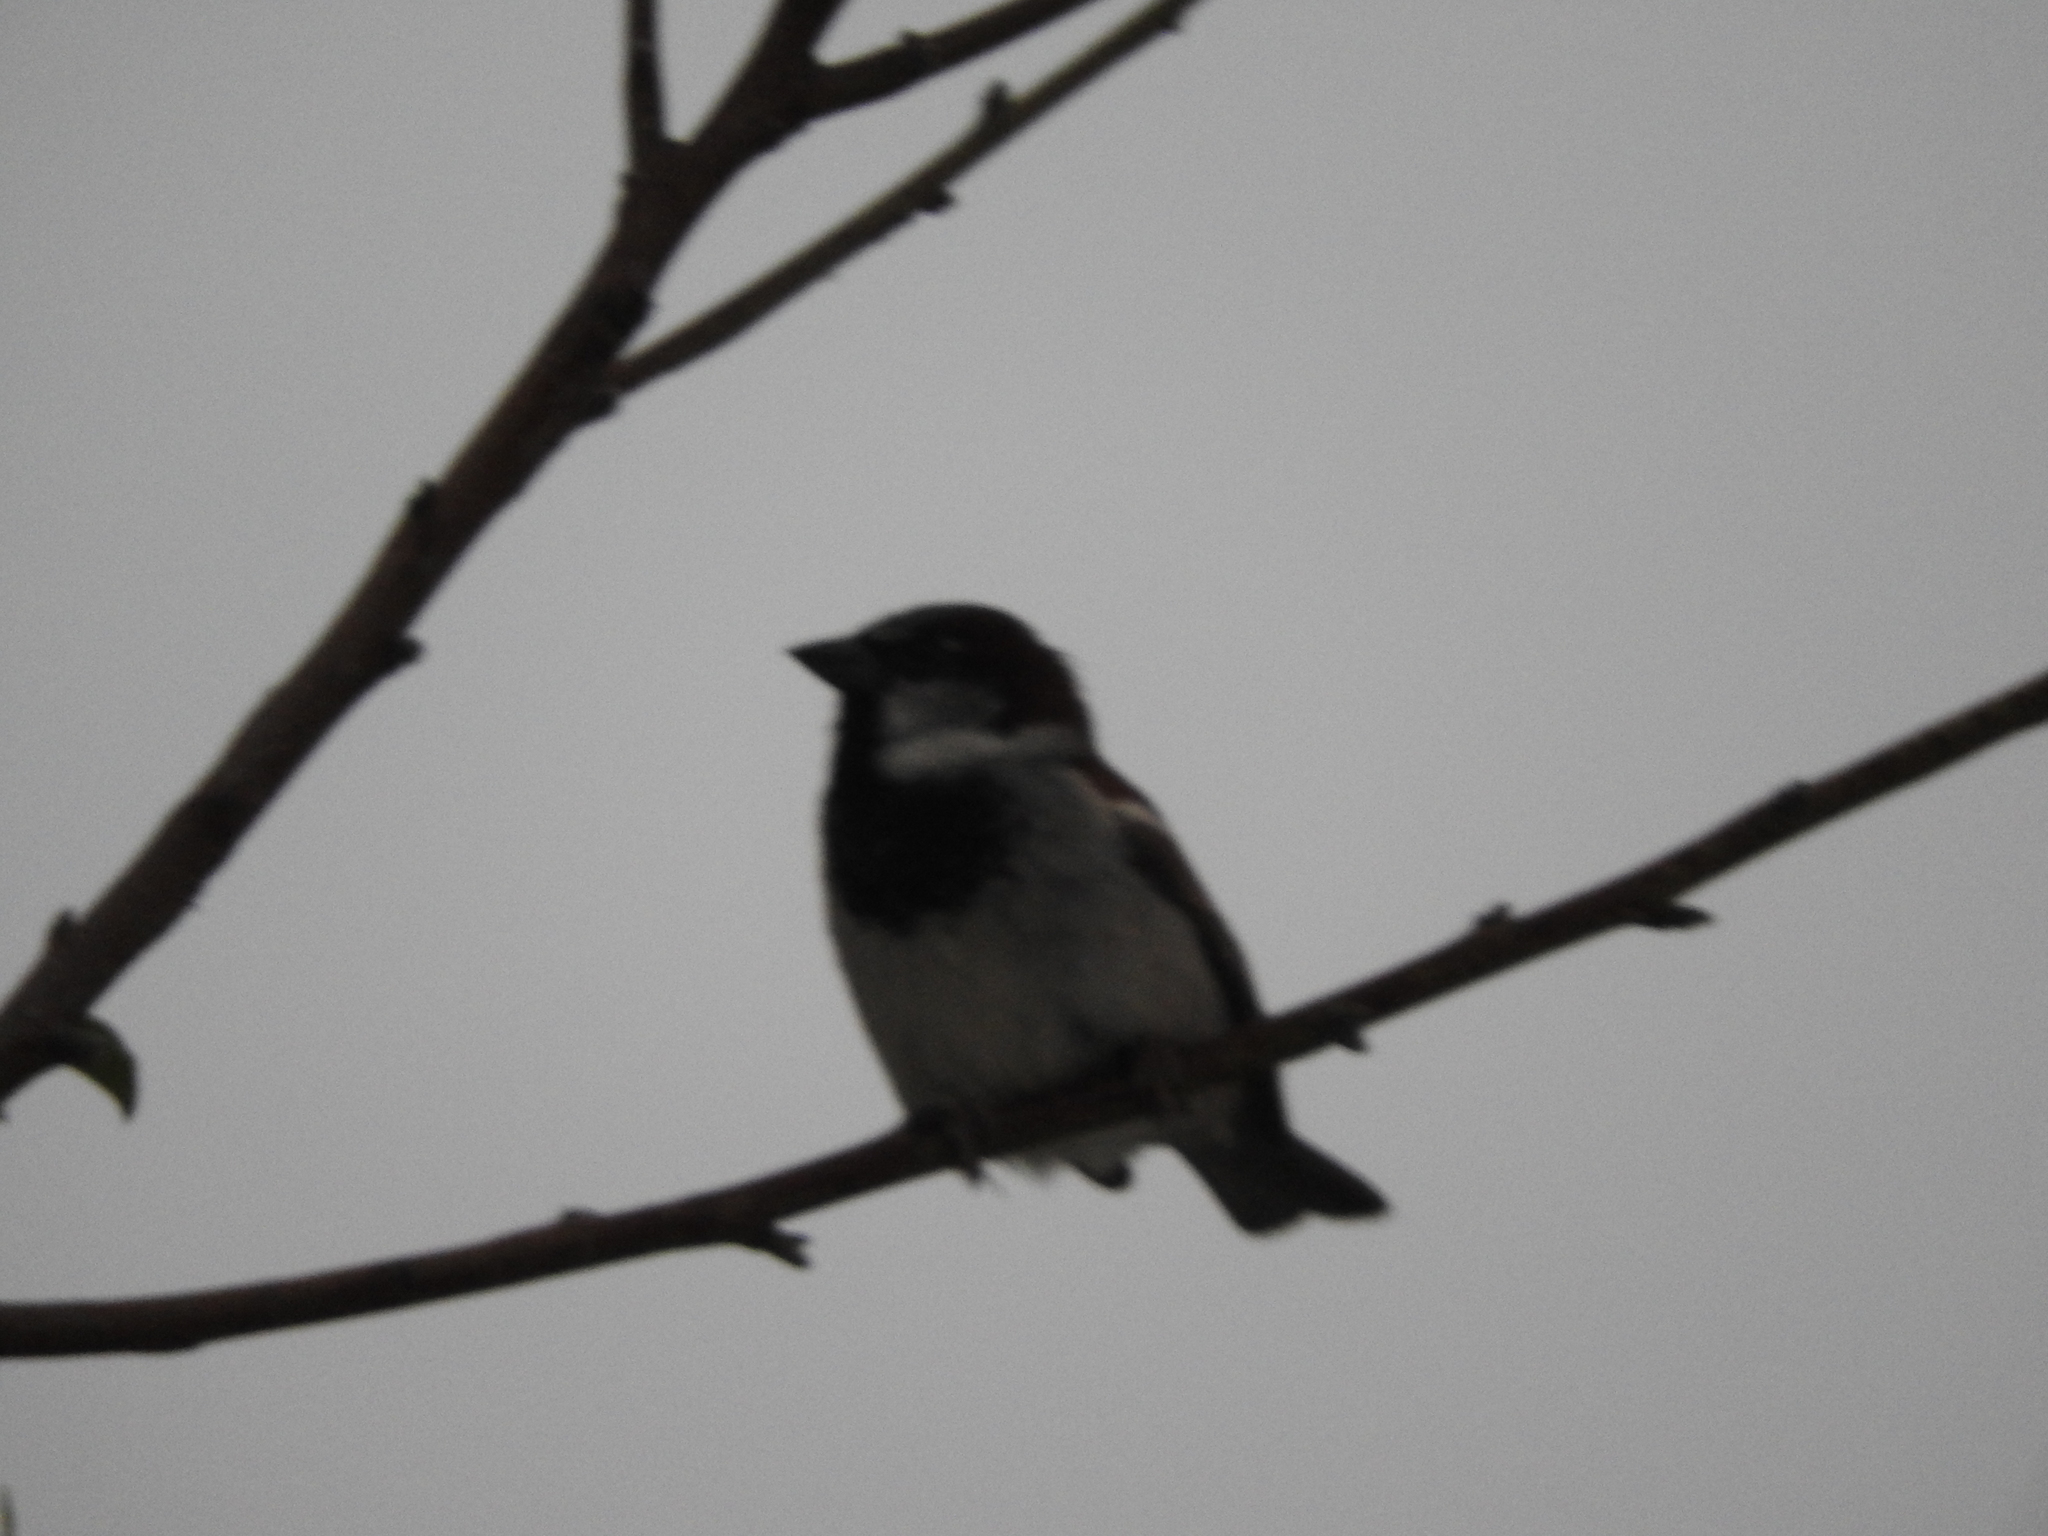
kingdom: Animalia
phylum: Chordata
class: Aves
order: Passeriformes
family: Passeridae
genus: Passer
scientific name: Passer domesticus
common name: House sparrow
